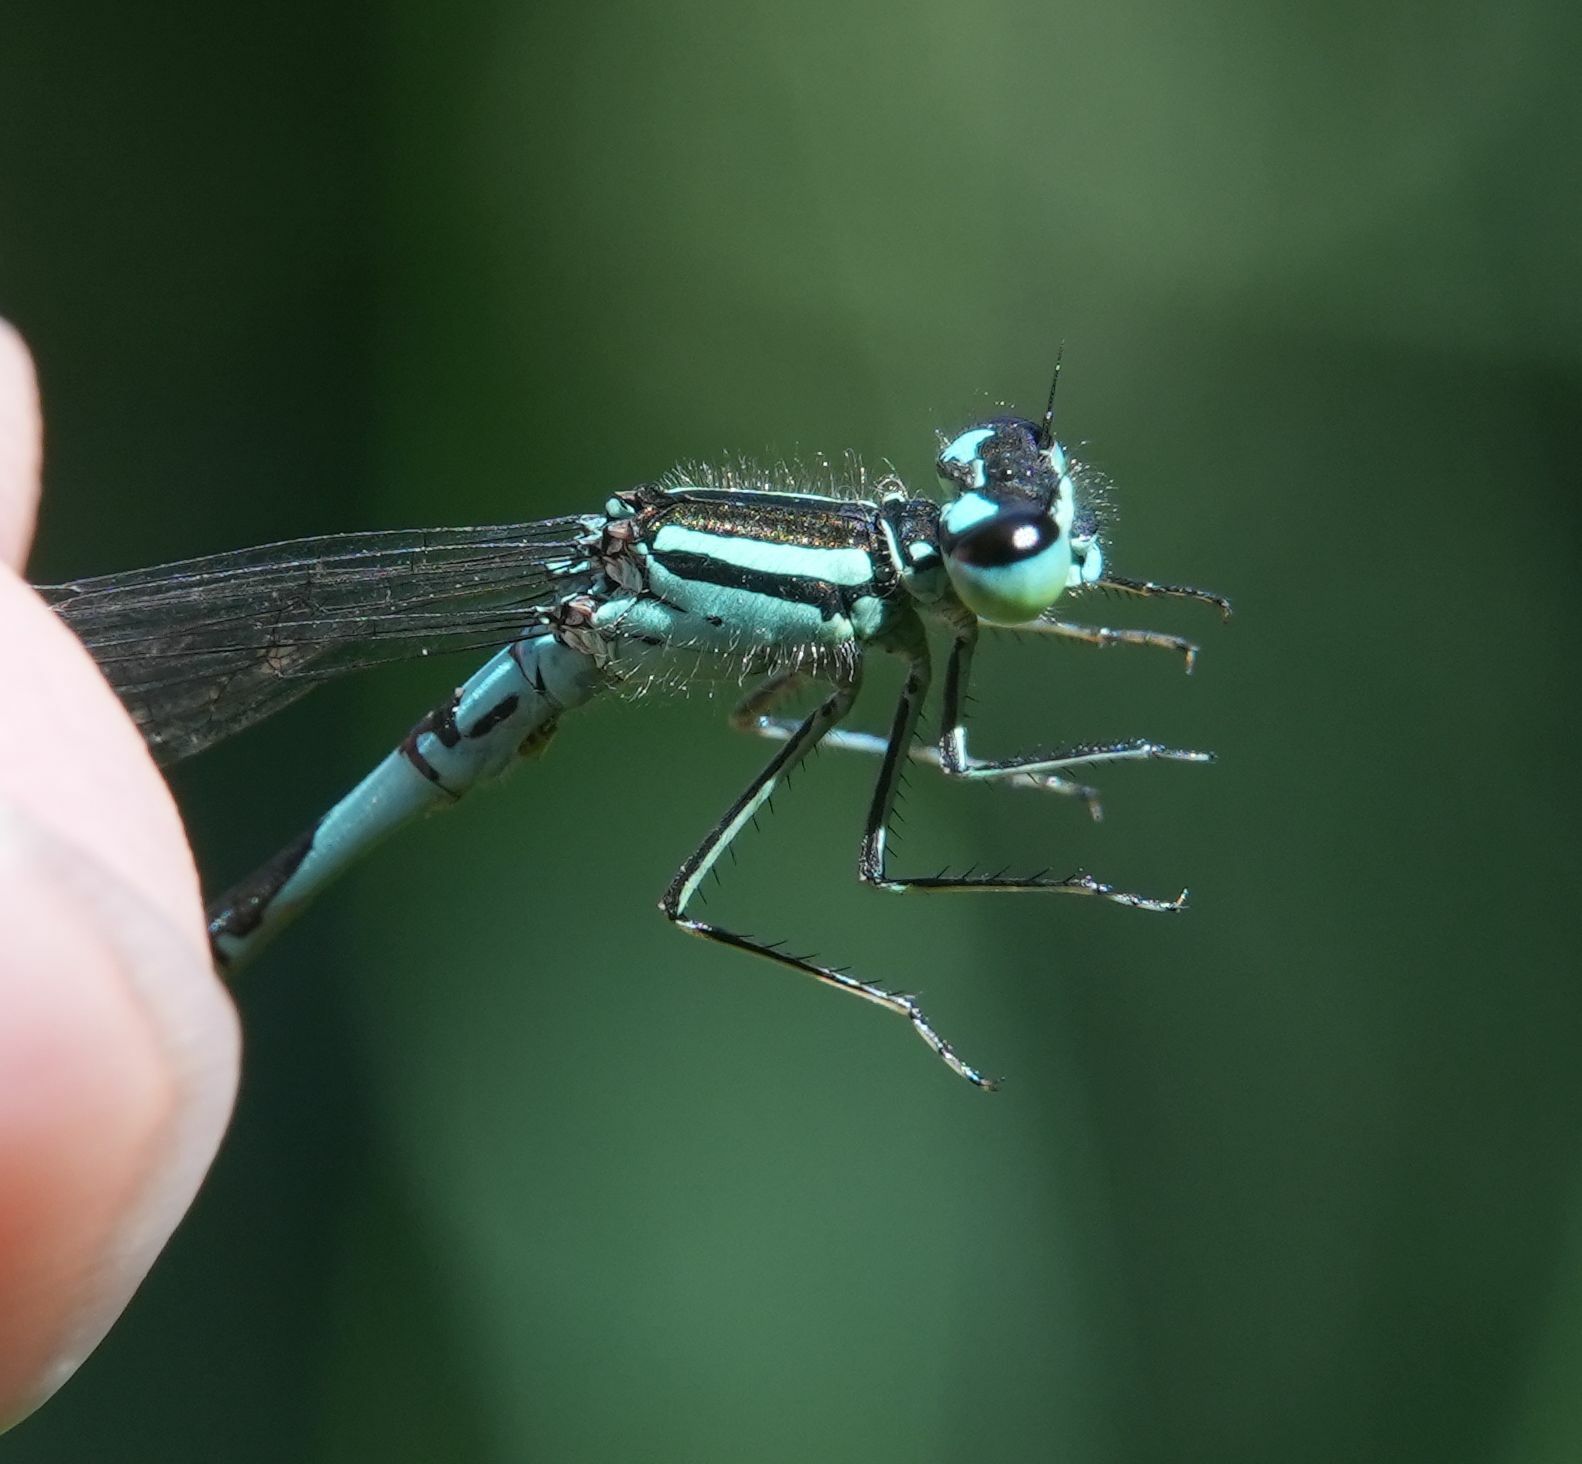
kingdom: Animalia
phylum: Arthropoda
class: Insecta
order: Odonata
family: Coenagrionidae
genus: Coenagrion
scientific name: Coenagrion resolutum
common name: Taiga bluet
